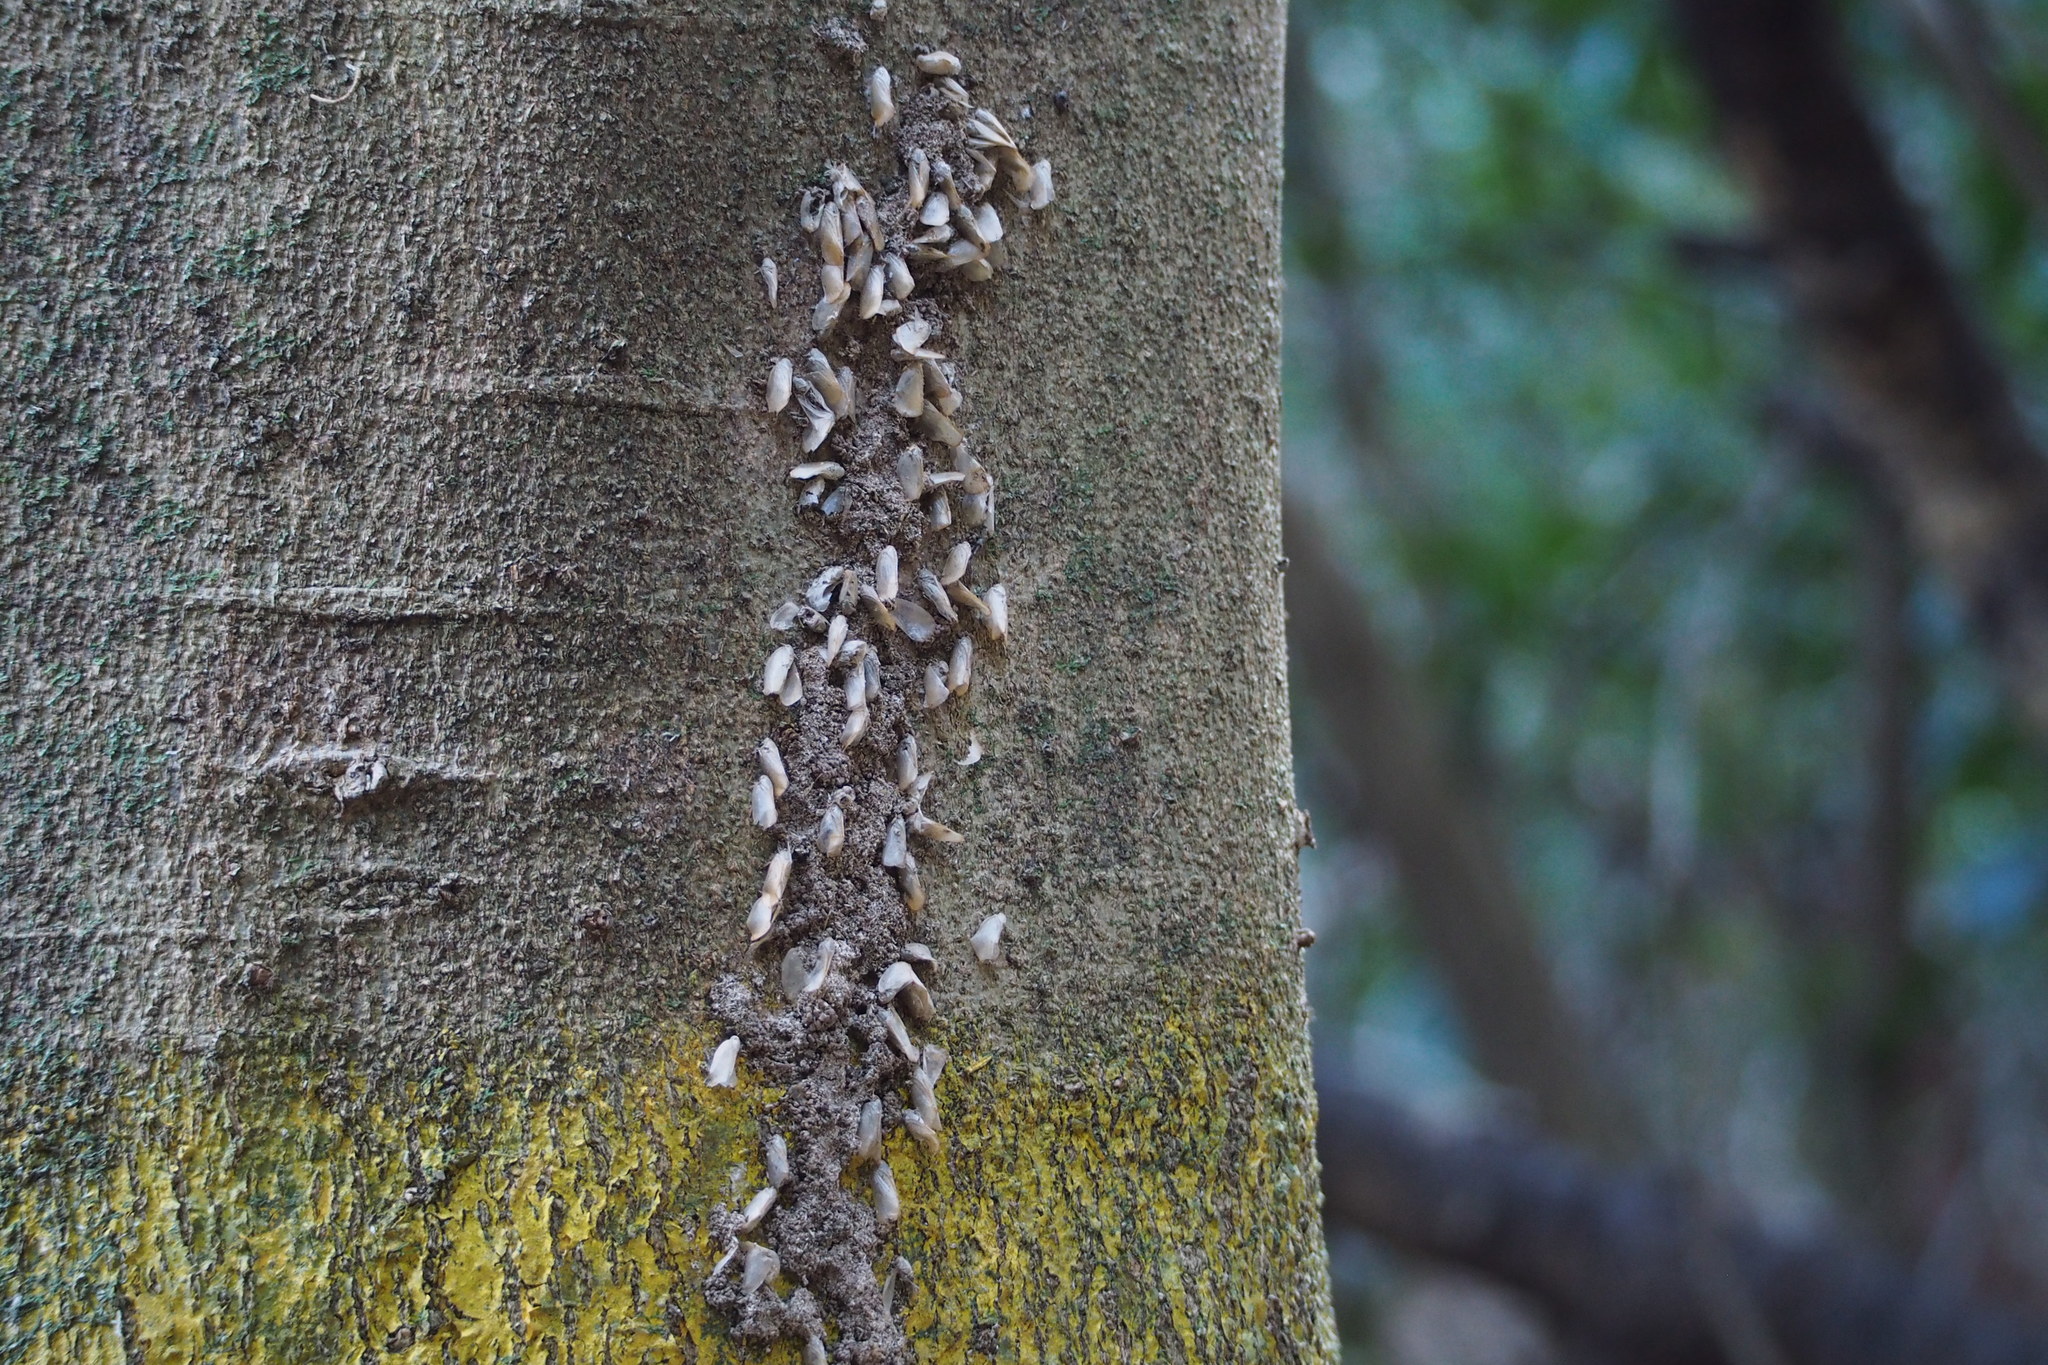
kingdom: Animalia
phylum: Arthropoda
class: Insecta
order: Hemiptera
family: Flatidae
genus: Geisha
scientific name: Geisha distinctissima
